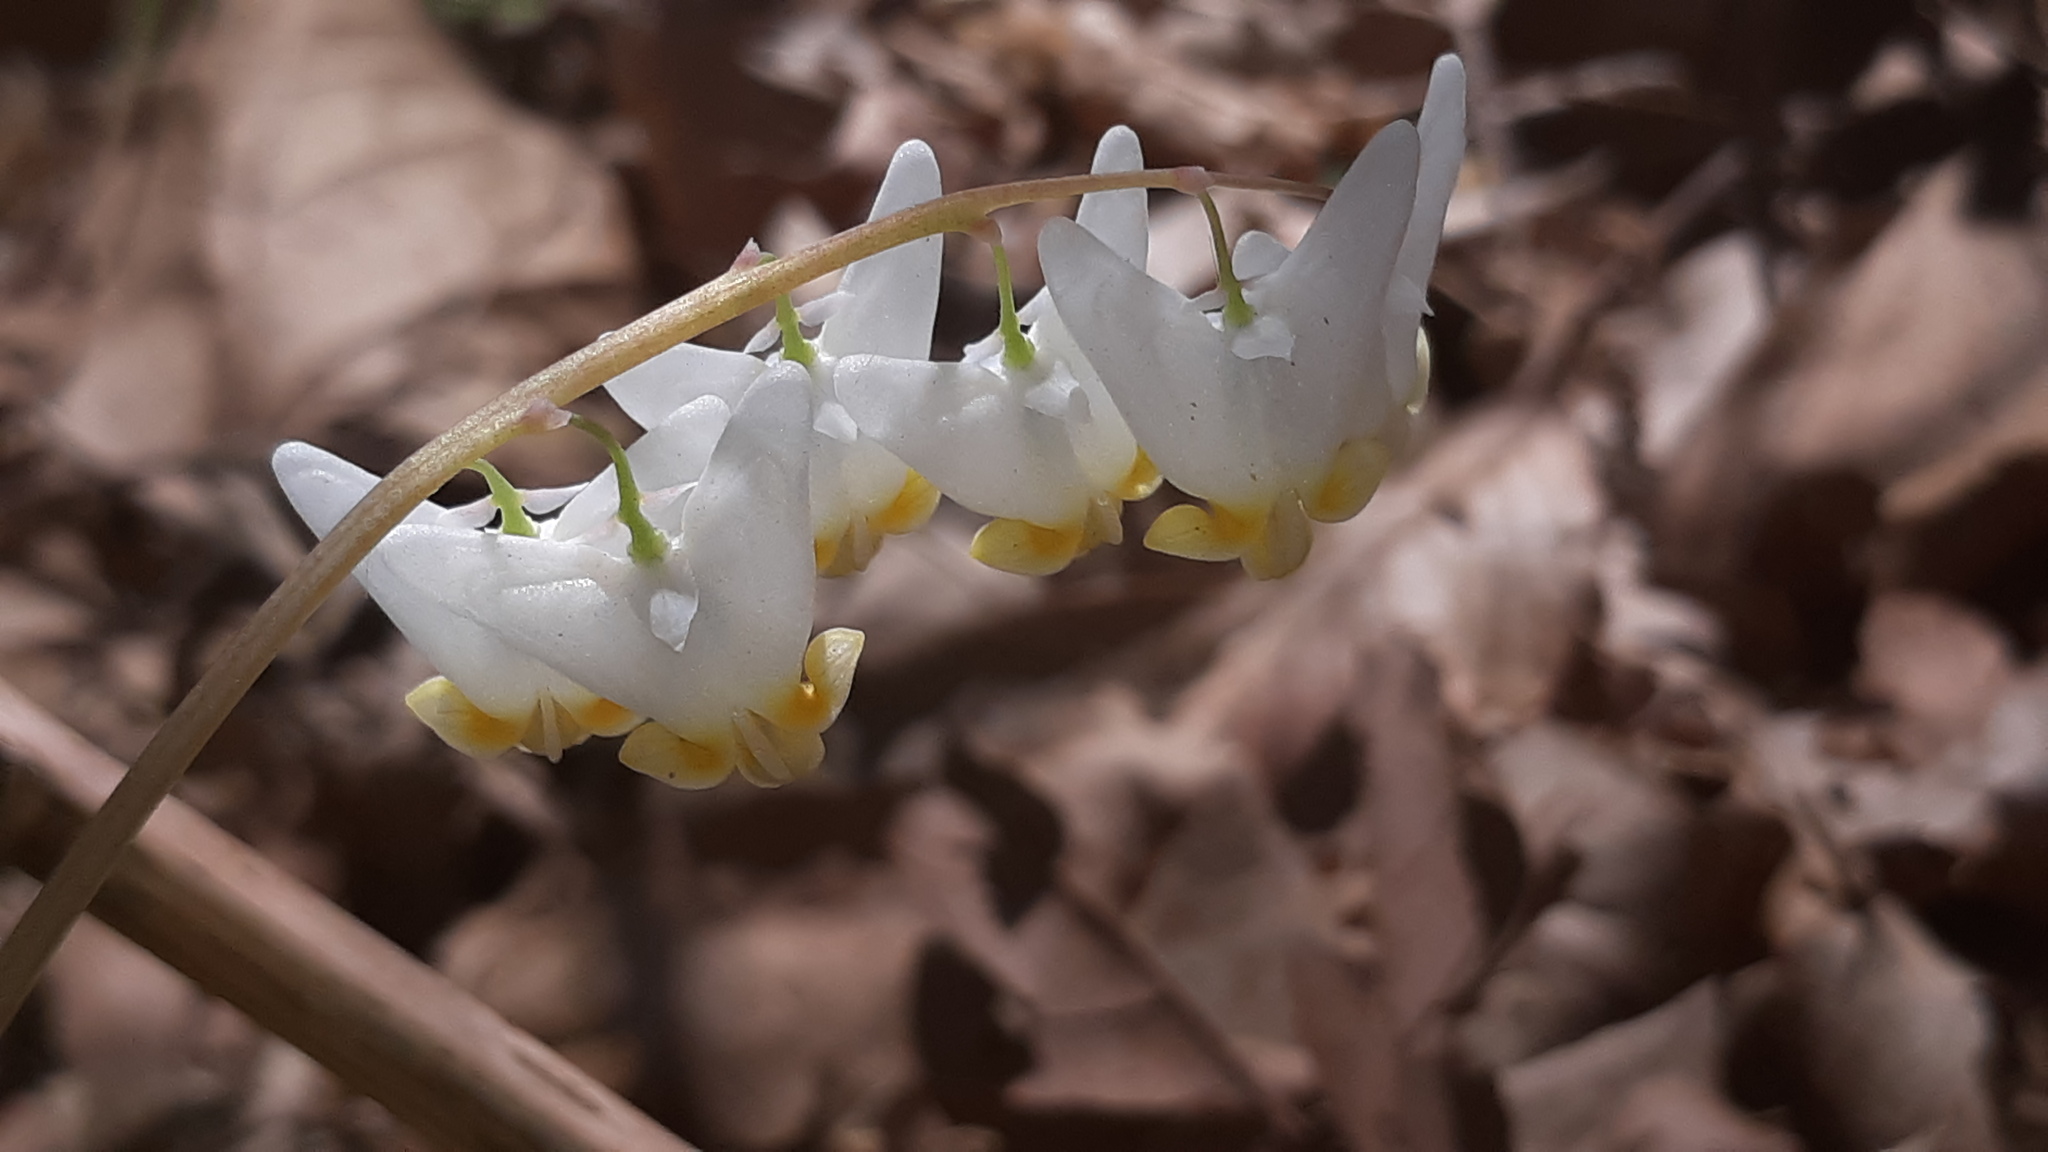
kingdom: Plantae
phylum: Tracheophyta
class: Magnoliopsida
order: Ranunculales
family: Papaveraceae
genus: Dicentra
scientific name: Dicentra cucullaria
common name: Dutchman's breeches
